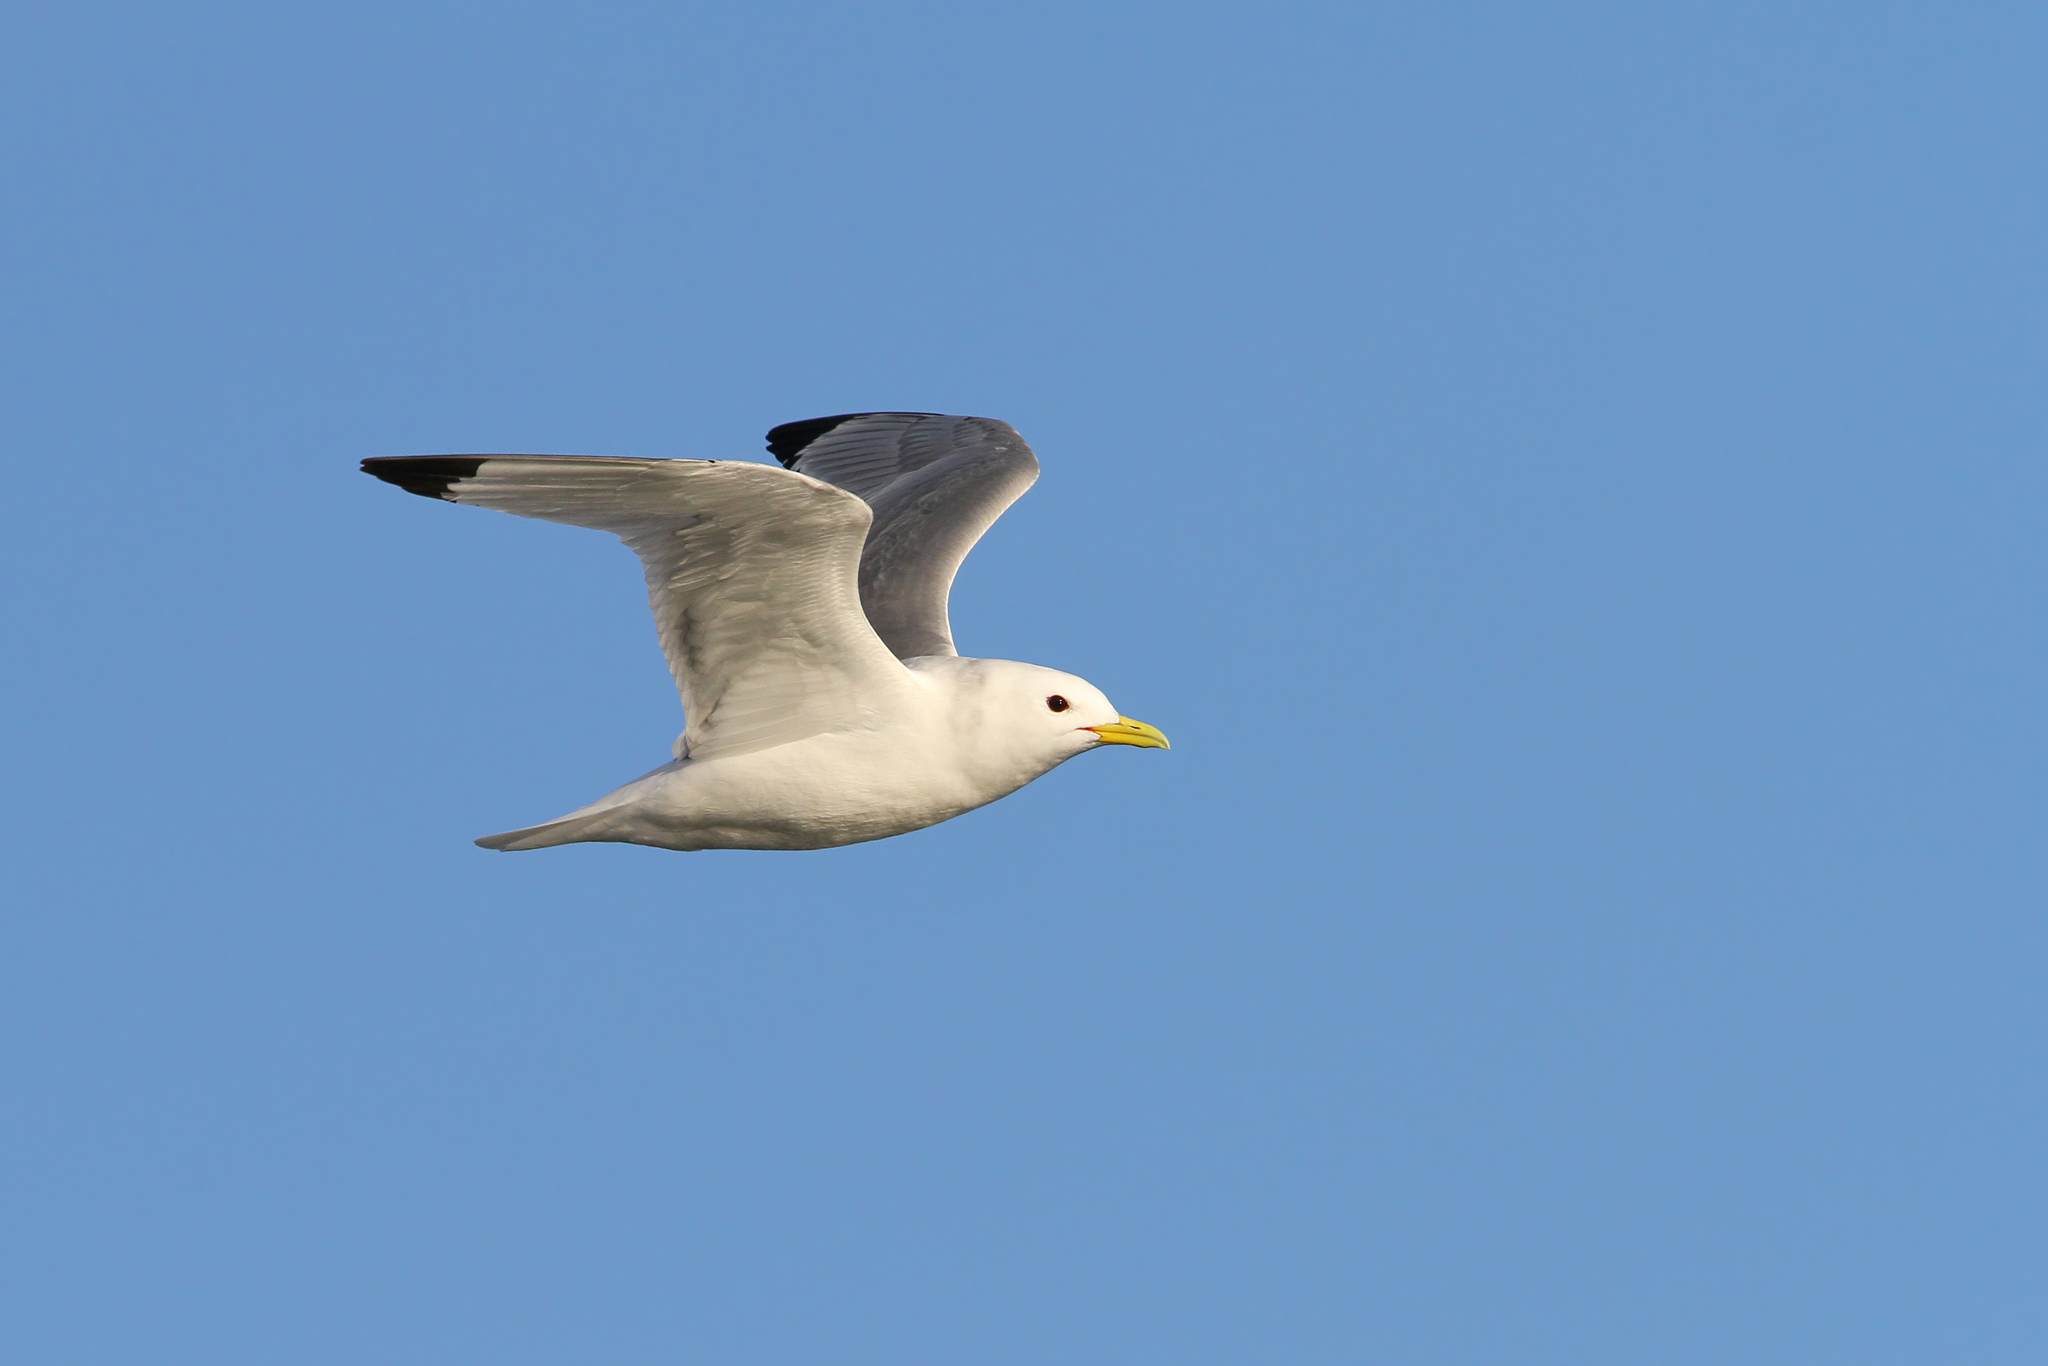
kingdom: Animalia
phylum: Chordata
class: Aves
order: Charadriiformes
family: Laridae
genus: Rissa
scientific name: Rissa tridactyla
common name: Black-legged kittiwake
